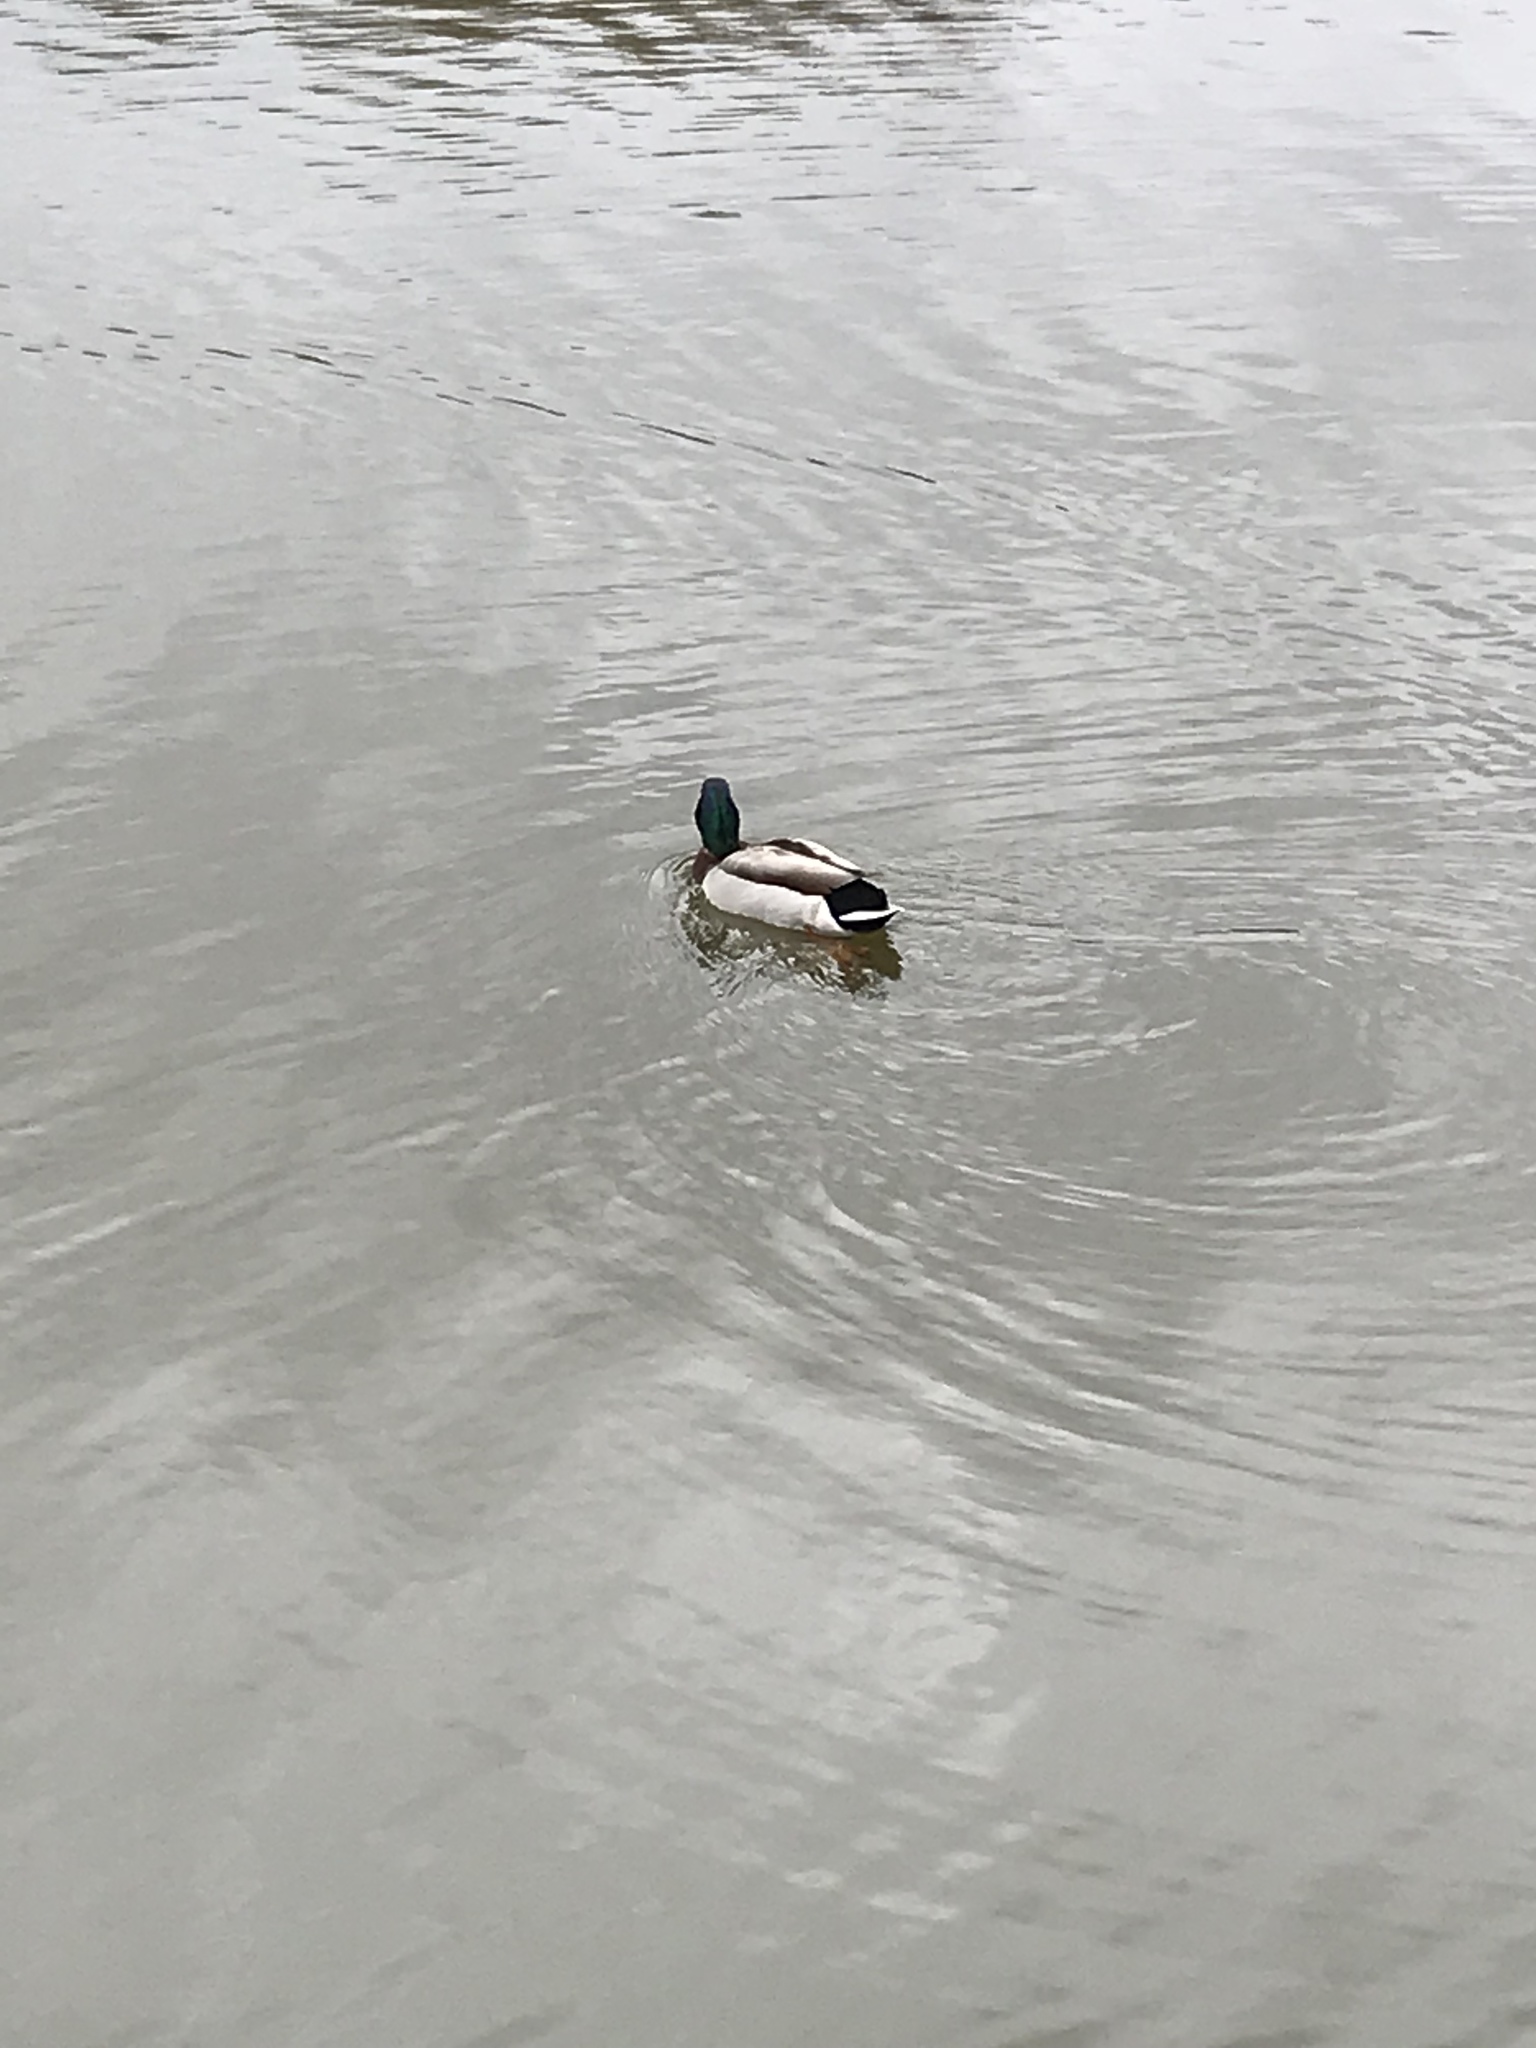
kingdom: Animalia
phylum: Chordata
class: Aves
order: Anseriformes
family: Anatidae
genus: Anas
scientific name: Anas platyrhynchos
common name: Mallard
